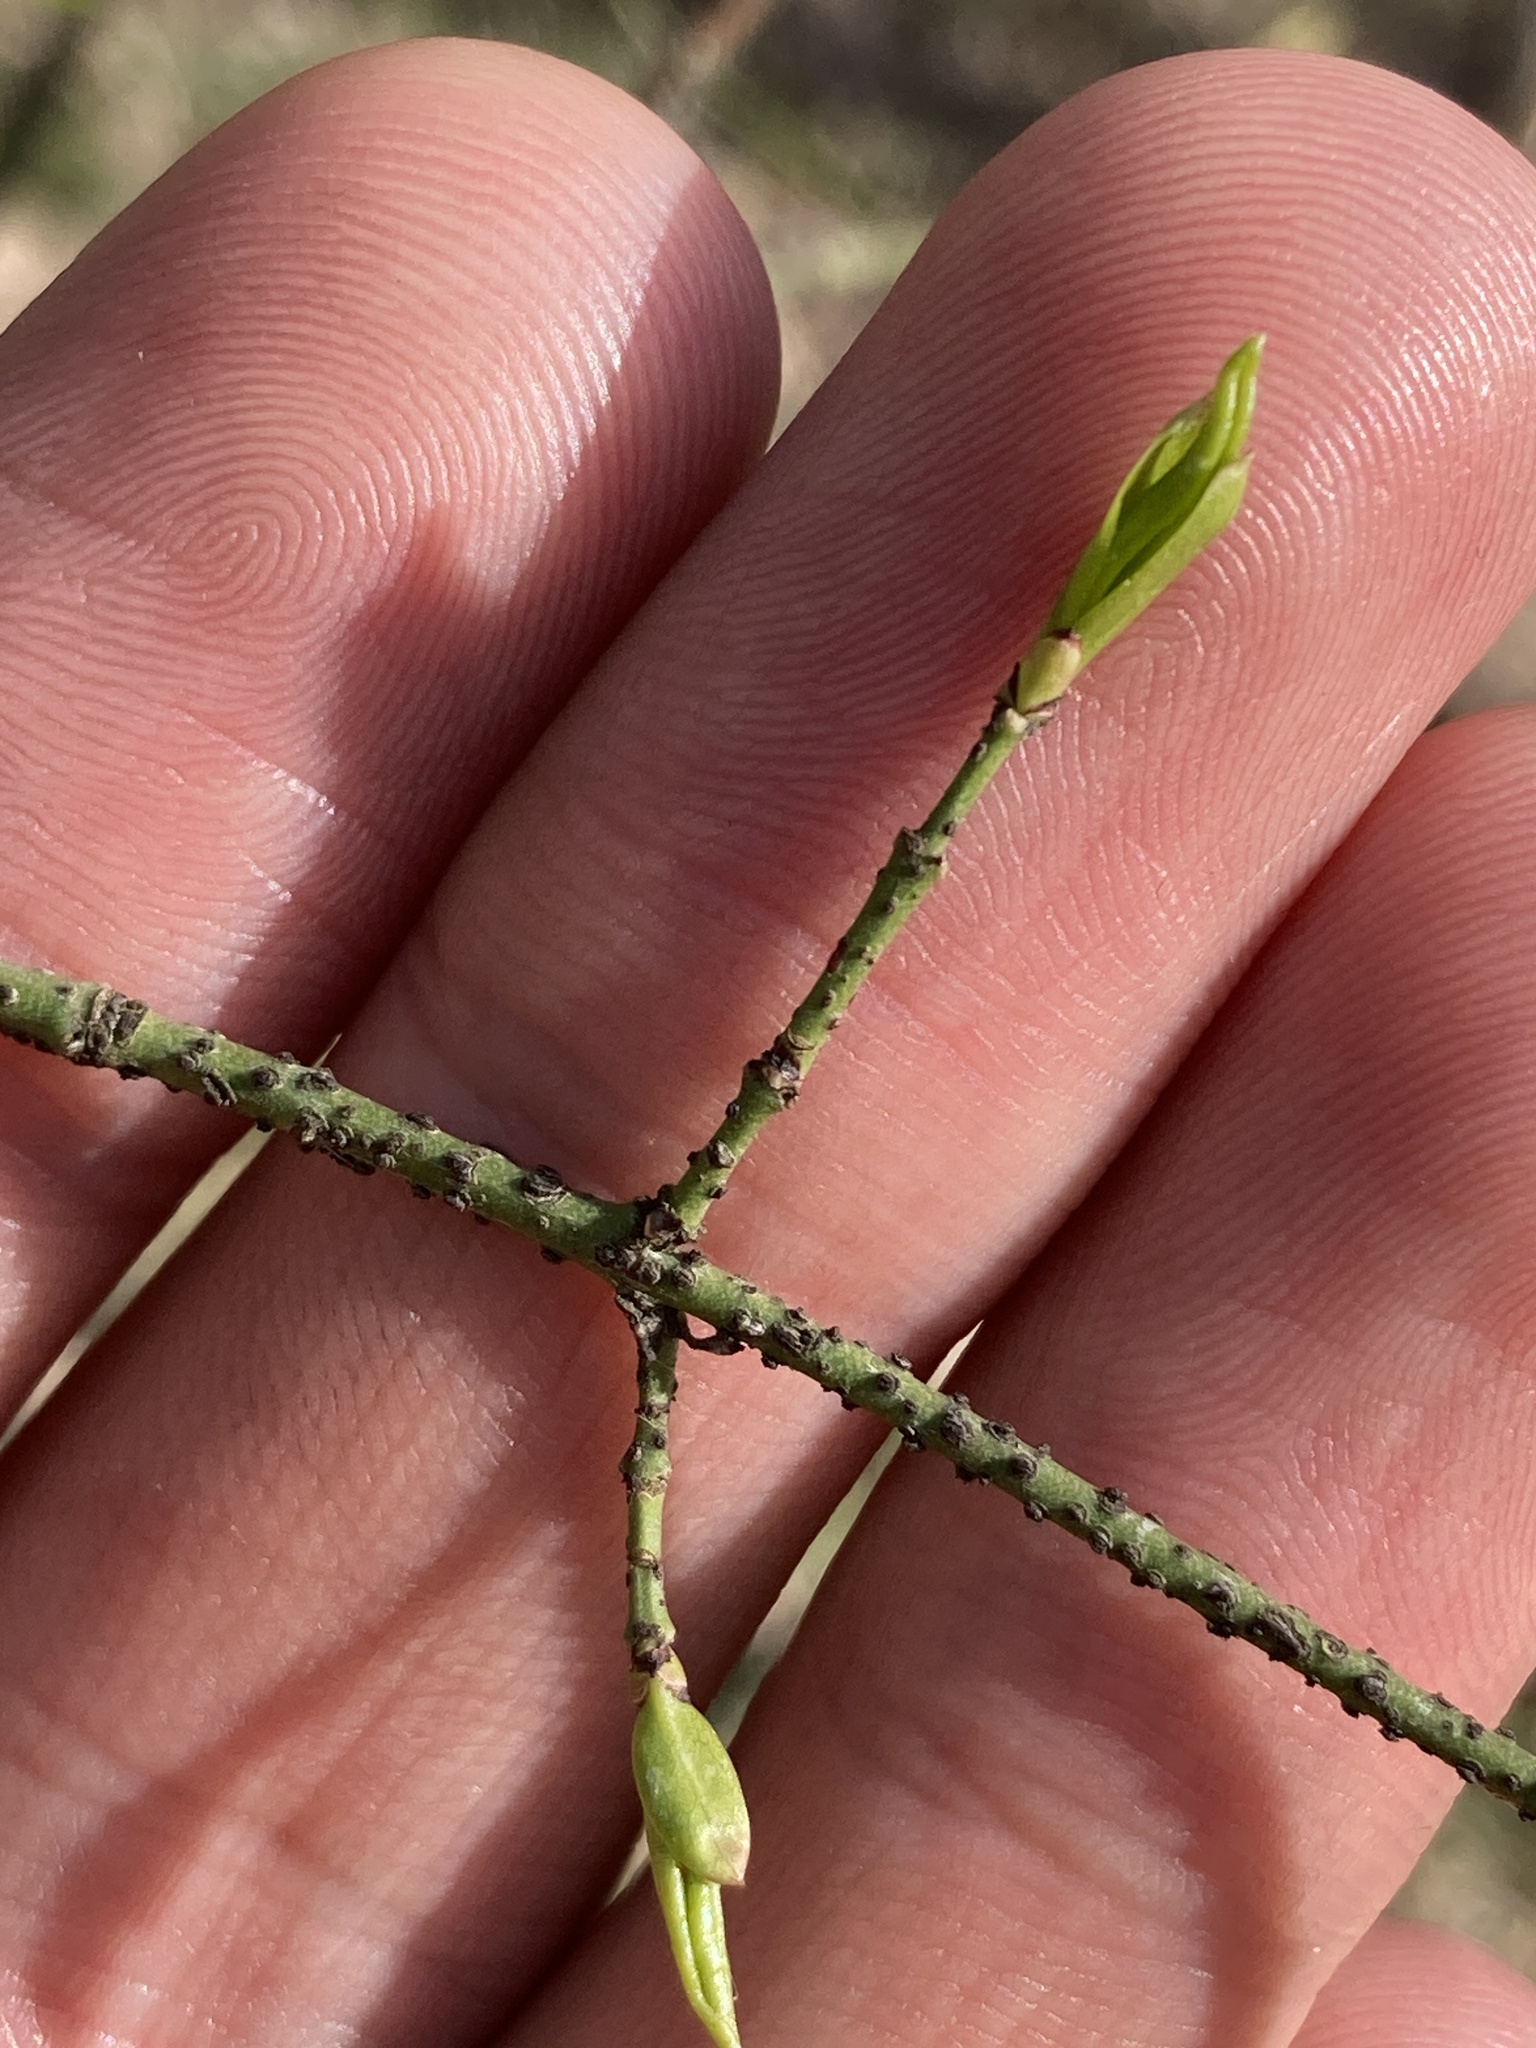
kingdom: Plantae
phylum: Tracheophyta
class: Magnoliopsida
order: Celastrales
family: Celastraceae
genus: Euonymus
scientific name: Euonymus verrucosus
